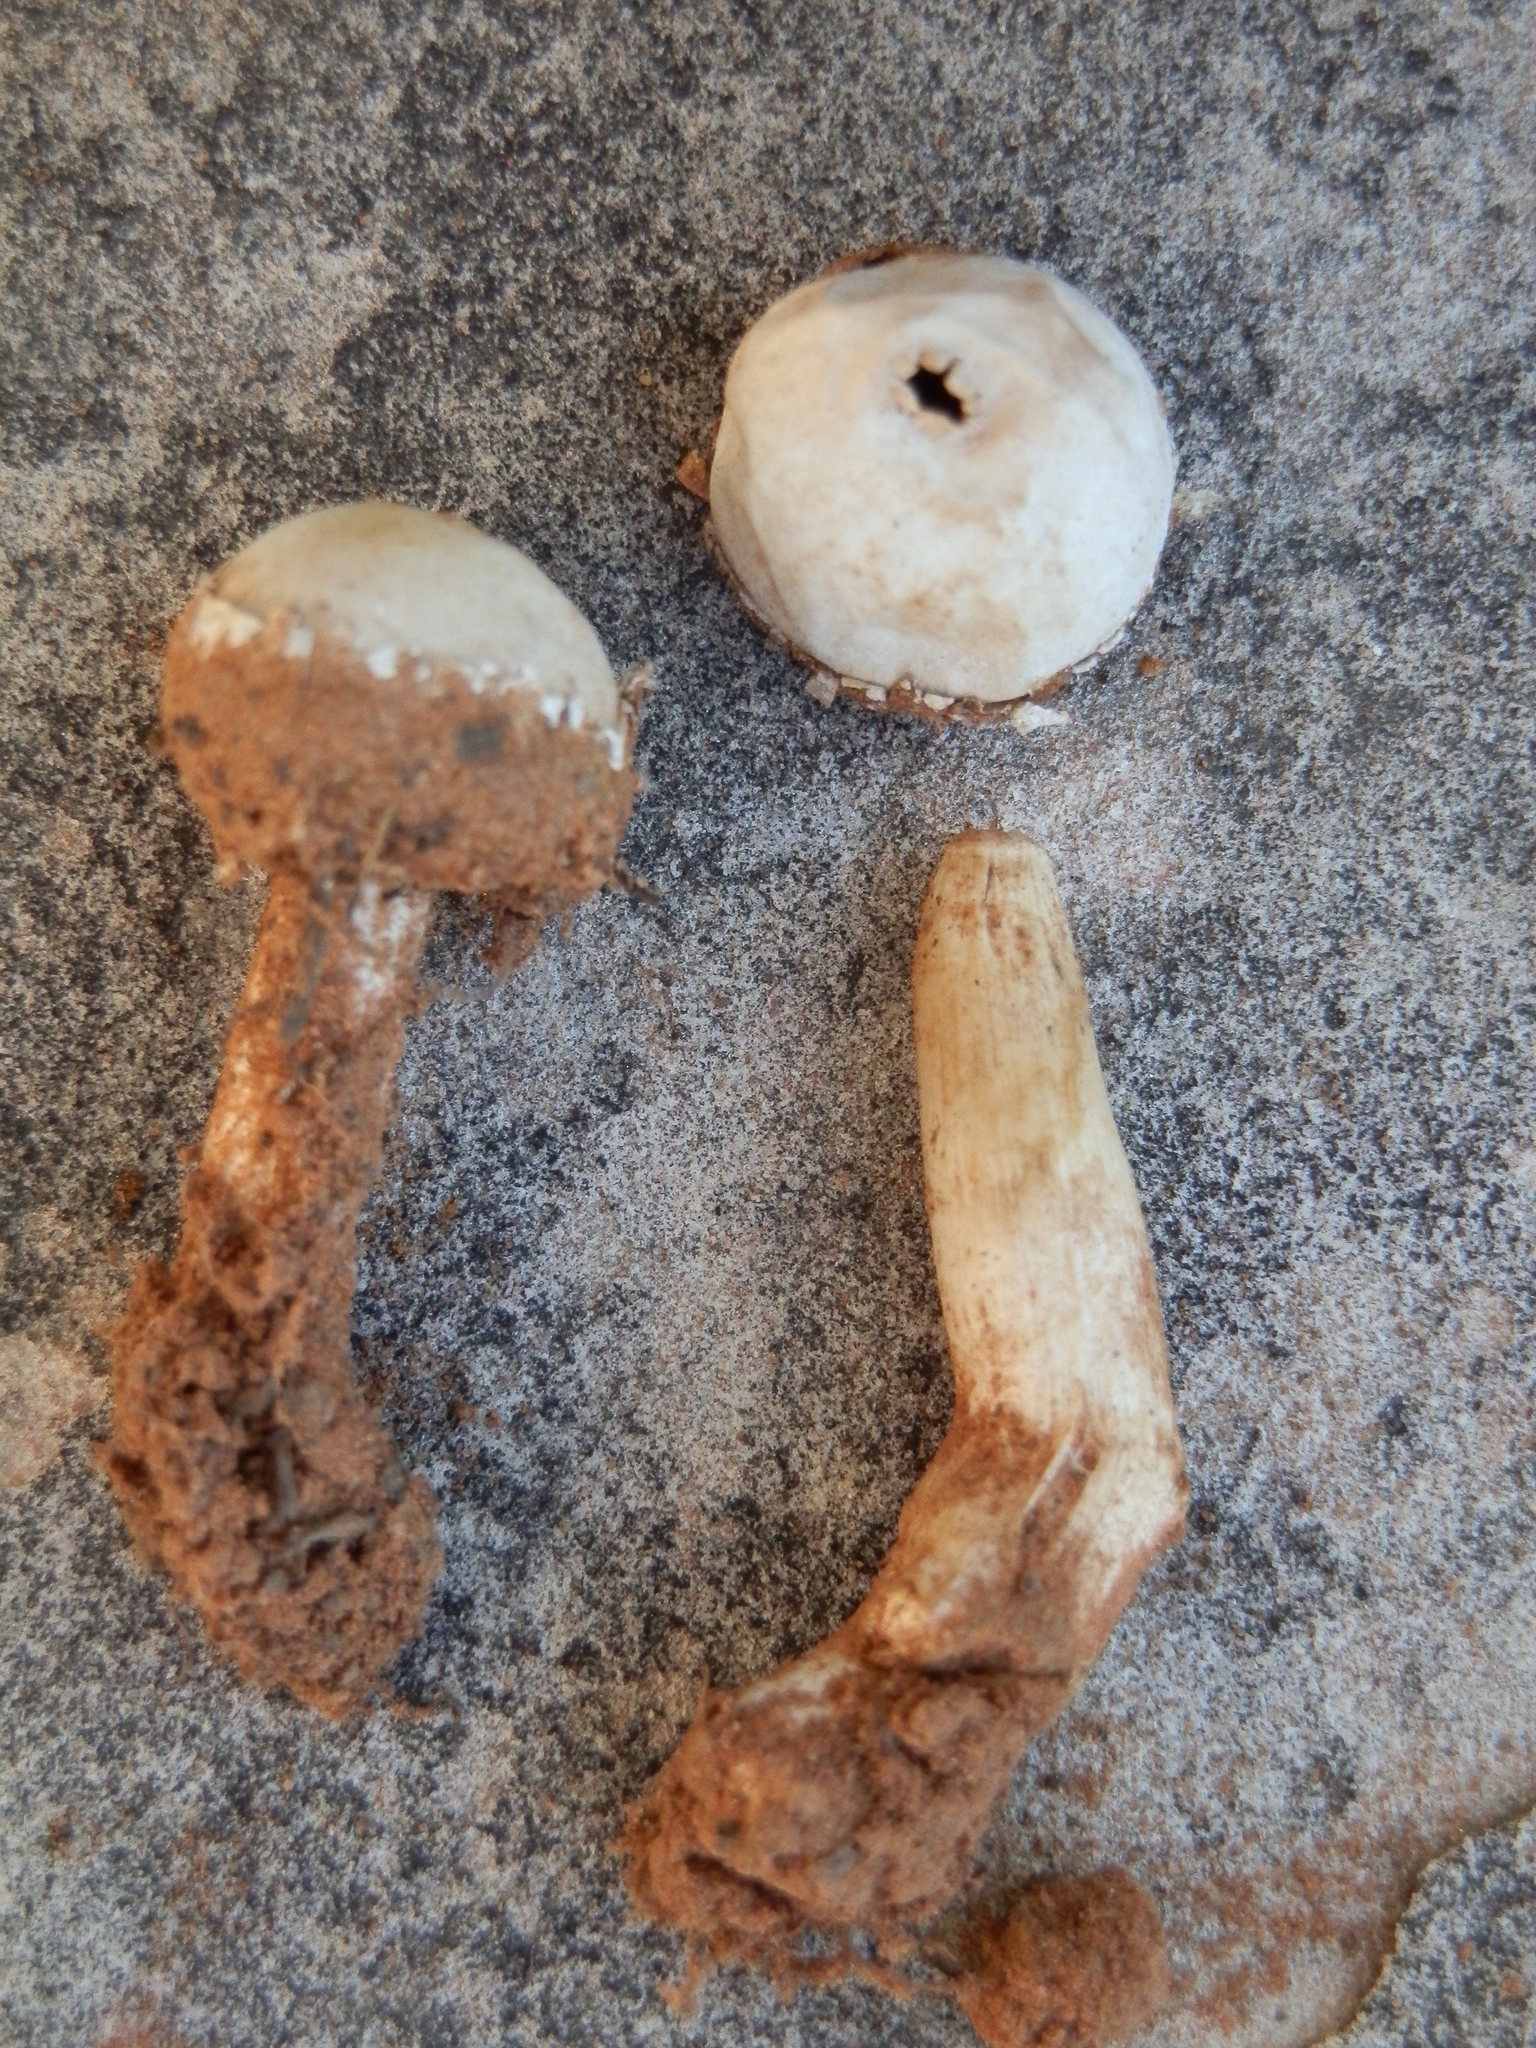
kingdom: Fungi
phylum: Basidiomycota
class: Agaricomycetes
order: Agaricales
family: Agaricaceae
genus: Tulostoma
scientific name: Tulostoma pulchellum
